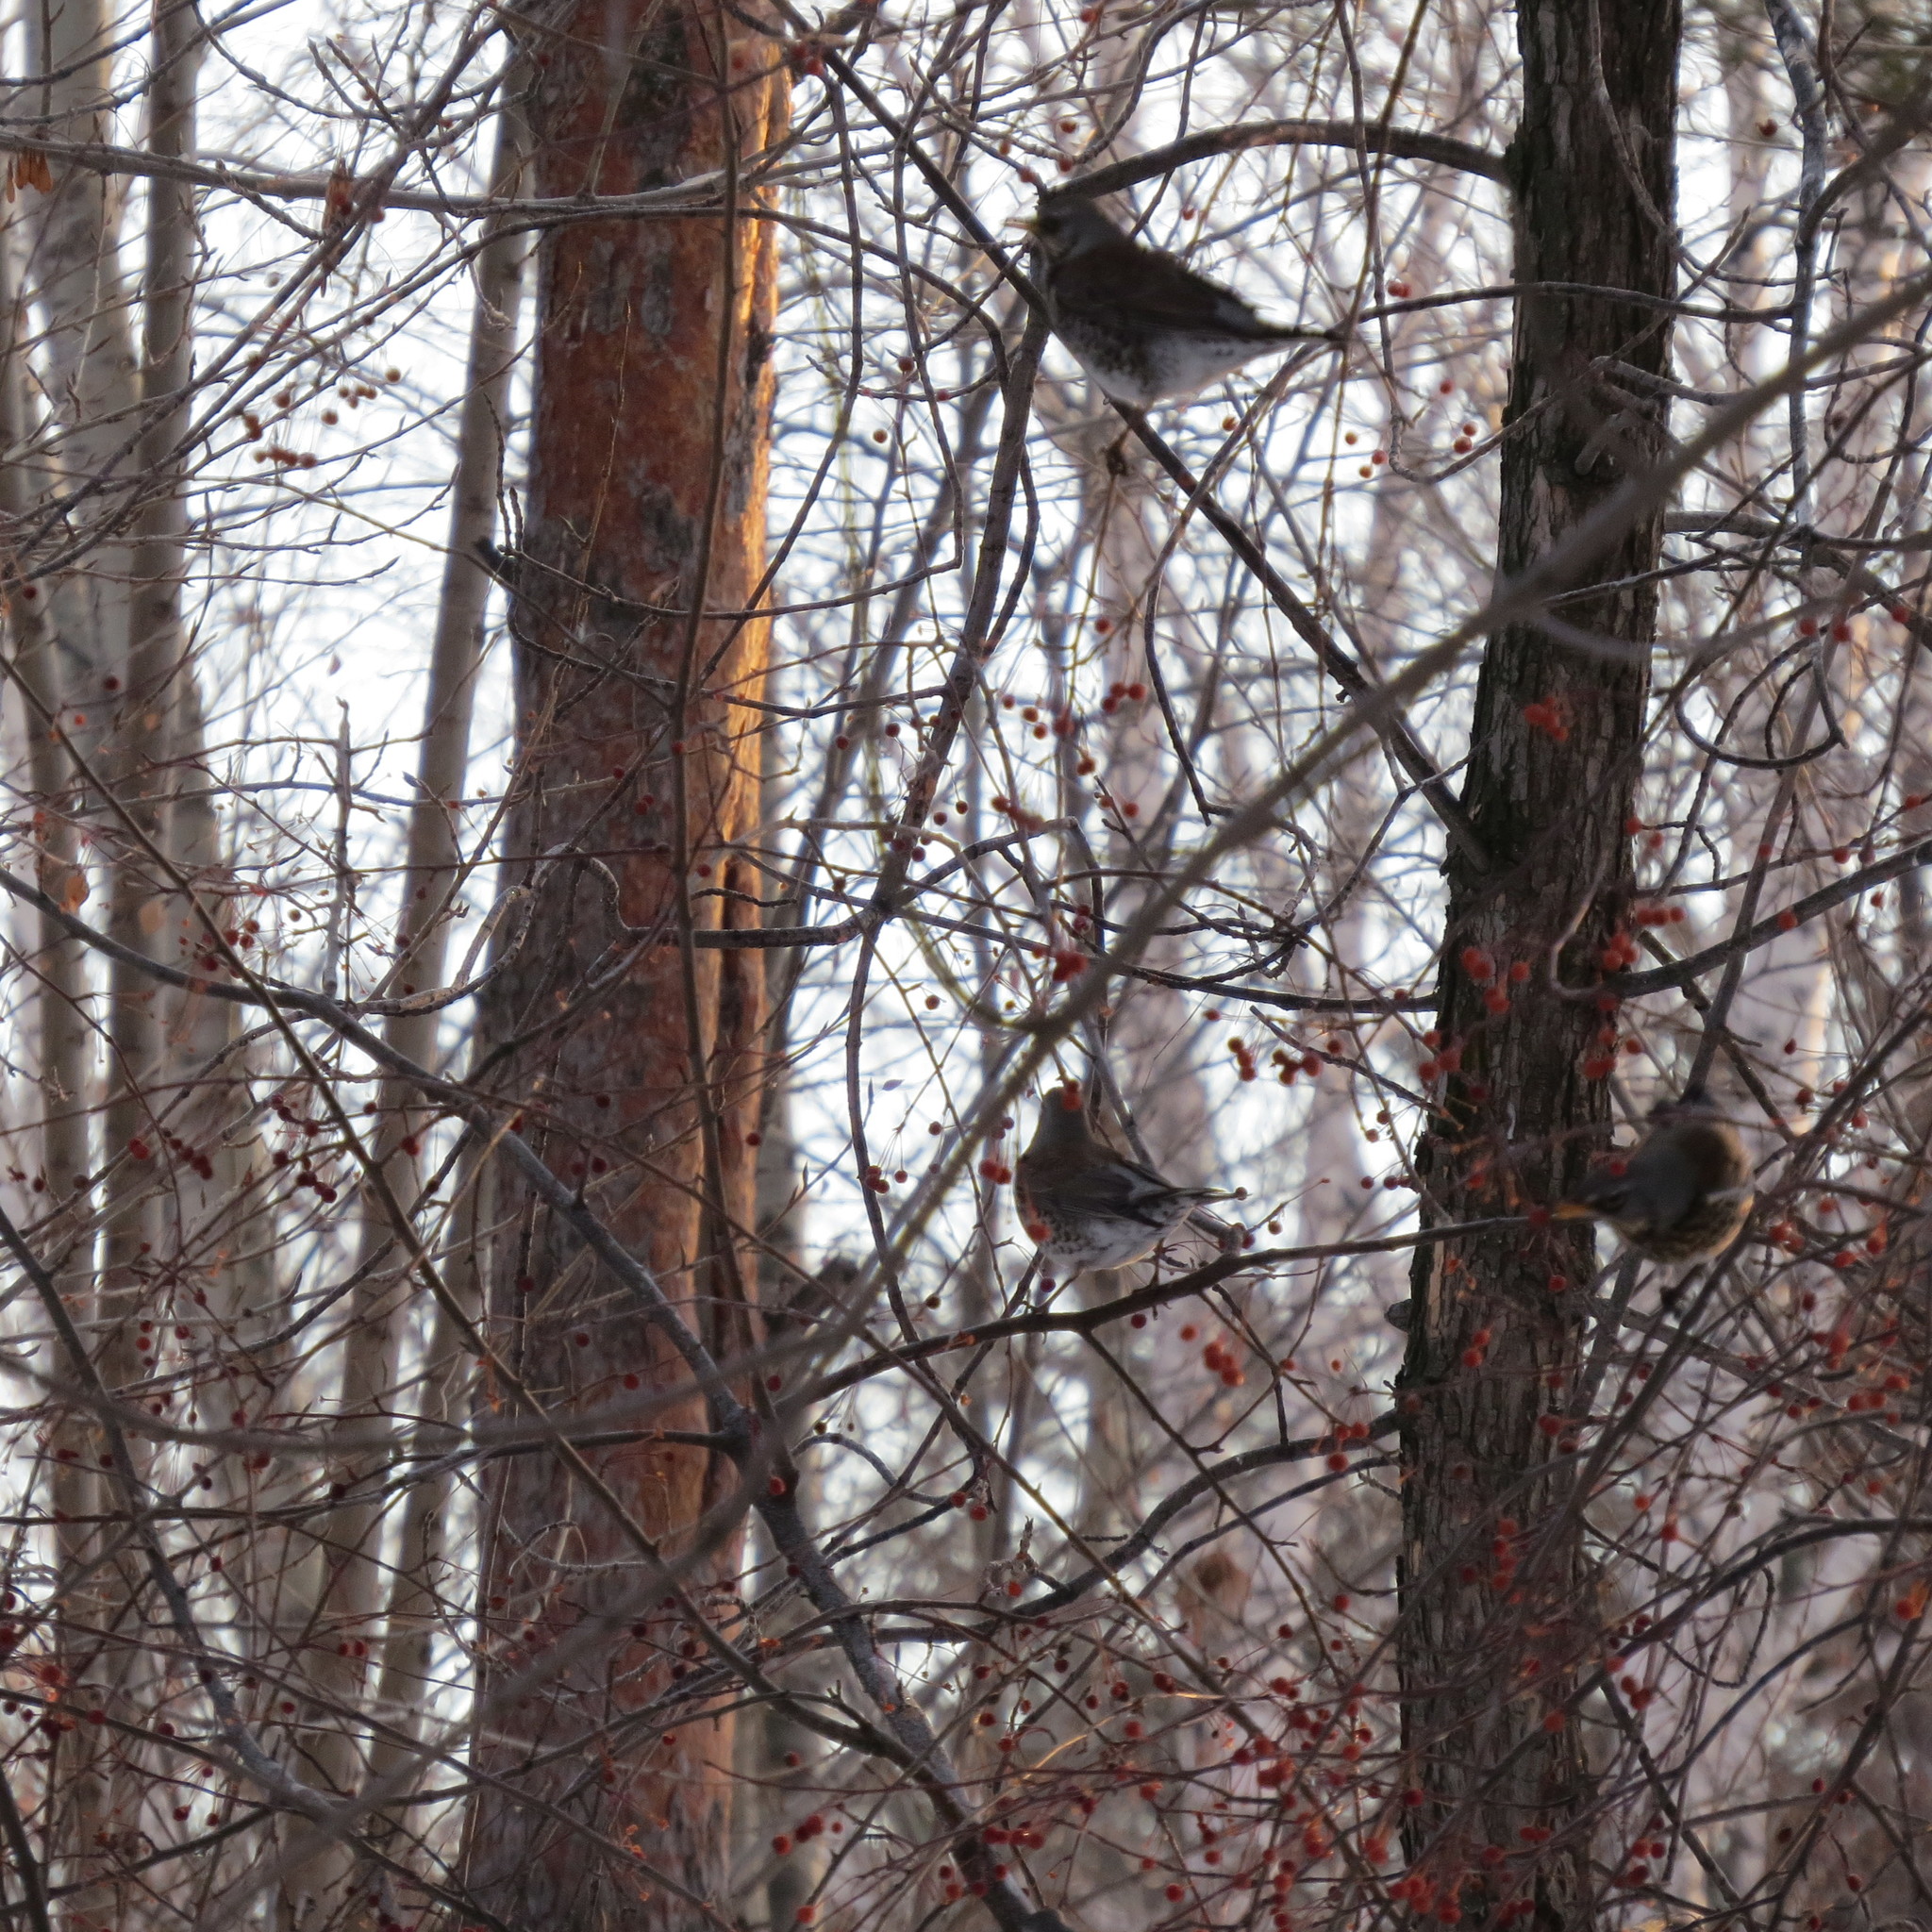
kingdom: Animalia
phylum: Chordata
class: Aves
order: Passeriformes
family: Turdidae
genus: Turdus
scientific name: Turdus pilaris
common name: Fieldfare
